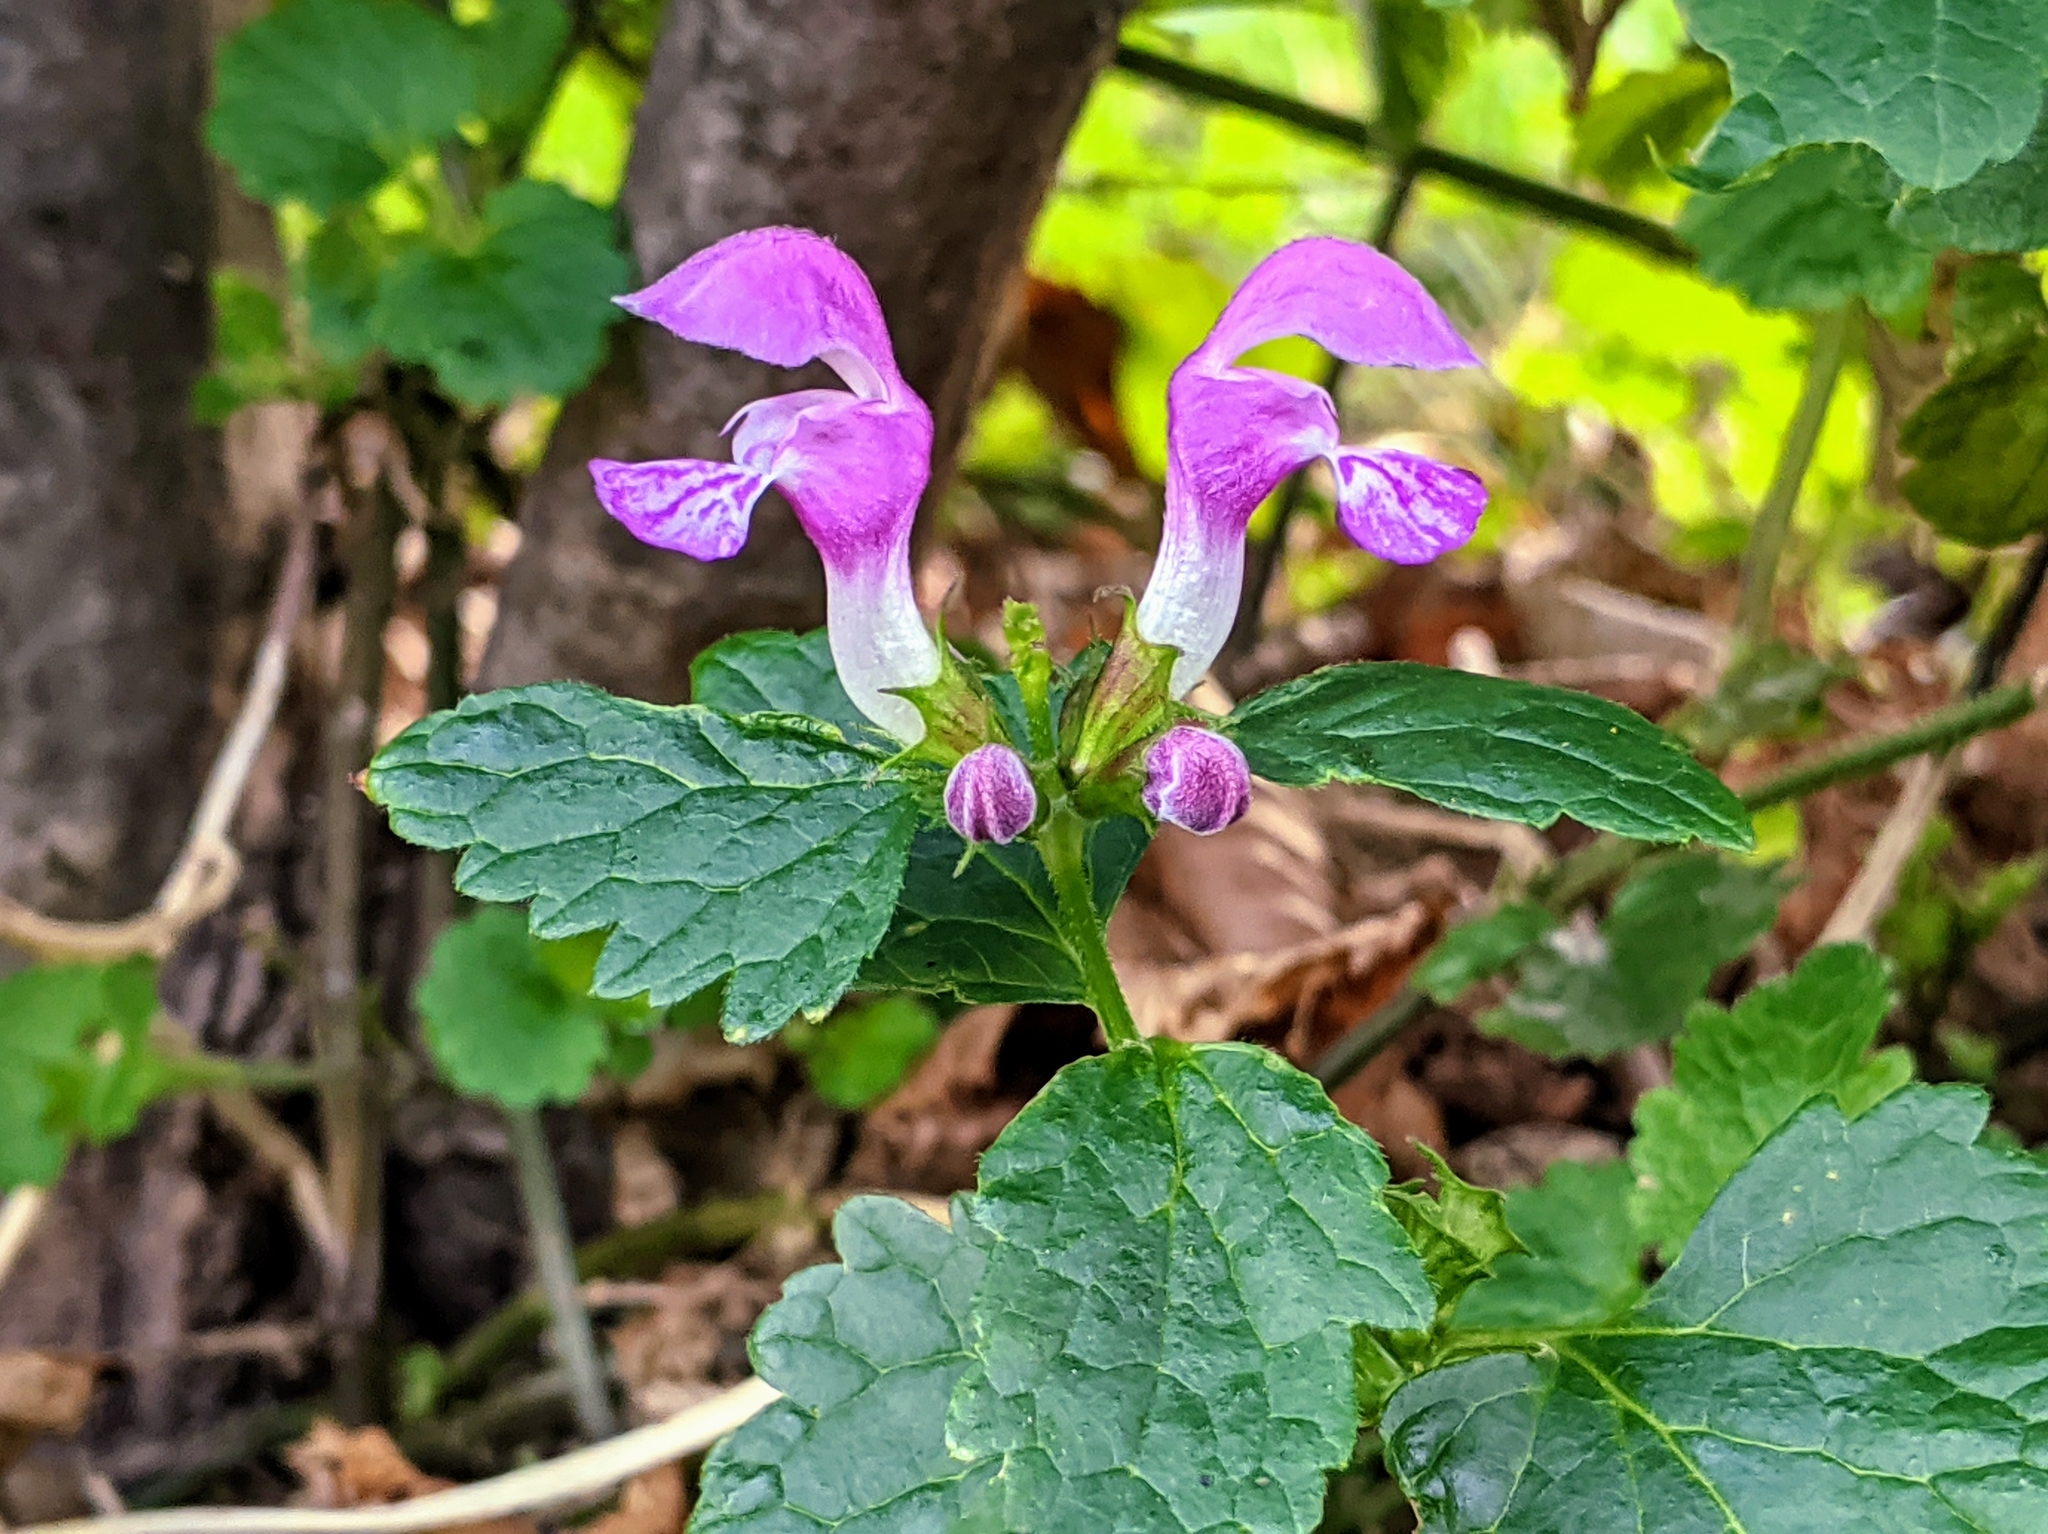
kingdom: Plantae
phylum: Tracheophyta
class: Magnoliopsida
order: Lamiales
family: Lamiaceae
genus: Lamium
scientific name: Lamium maculatum
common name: Spotted dead-nettle
